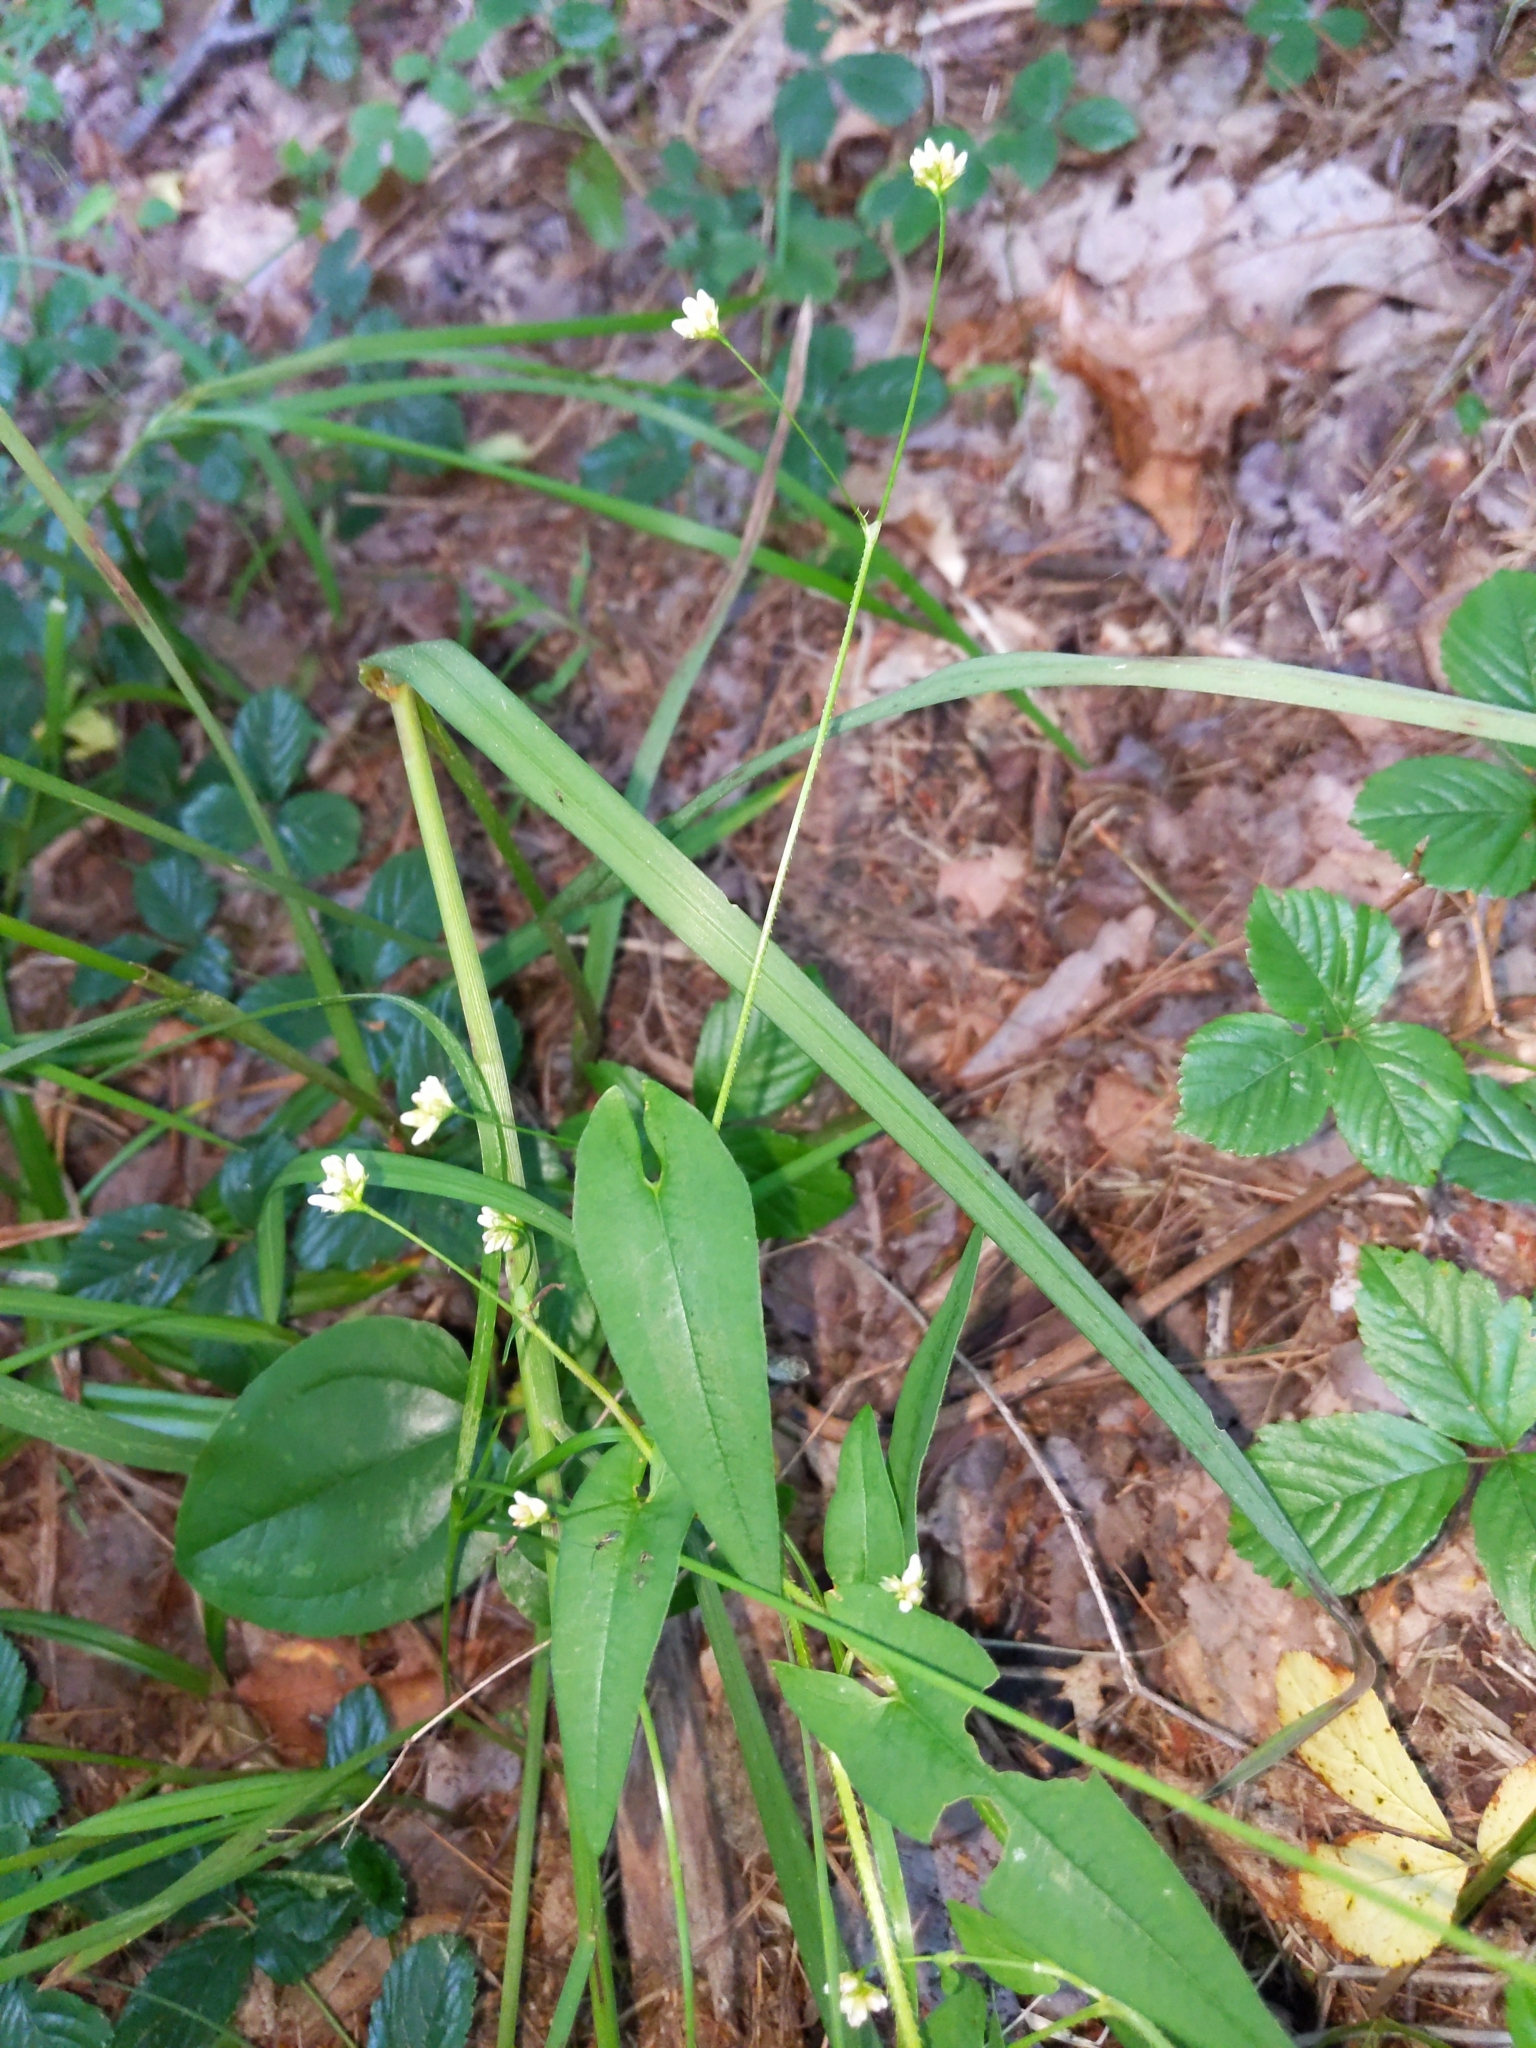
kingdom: Plantae
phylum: Tracheophyta
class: Magnoliopsida
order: Caryophyllales
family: Polygonaceae
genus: Persicaria
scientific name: Persicaria sagittata
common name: American tearthumb
